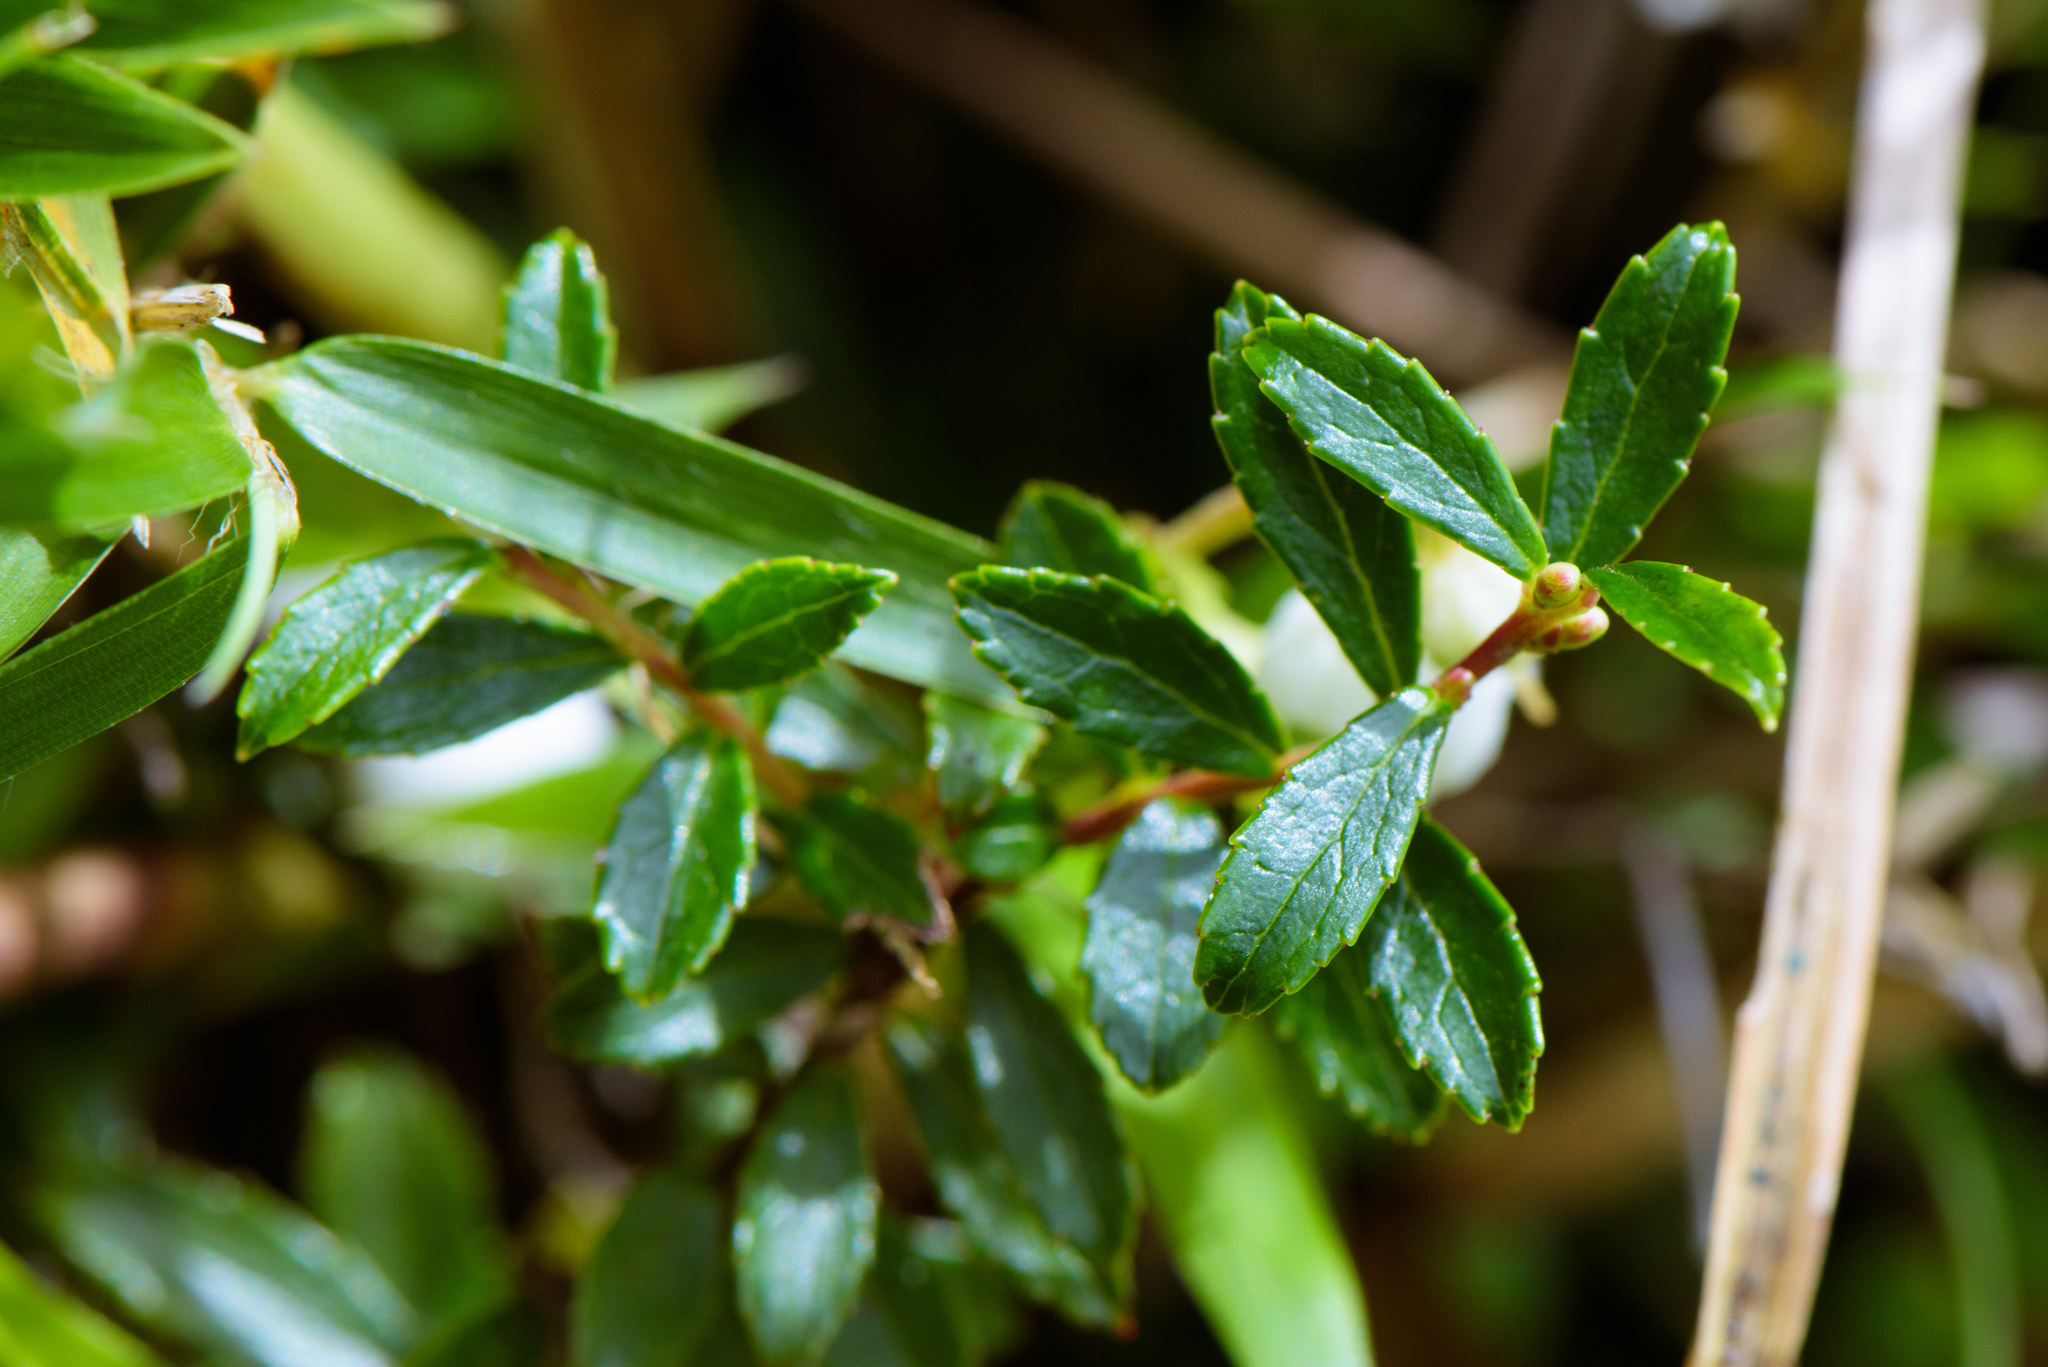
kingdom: Plantae
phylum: Tracheophyta
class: Magnoliopsida
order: Ericales
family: Ericaceae
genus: Gaultheria
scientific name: Gaultheria borneensis
